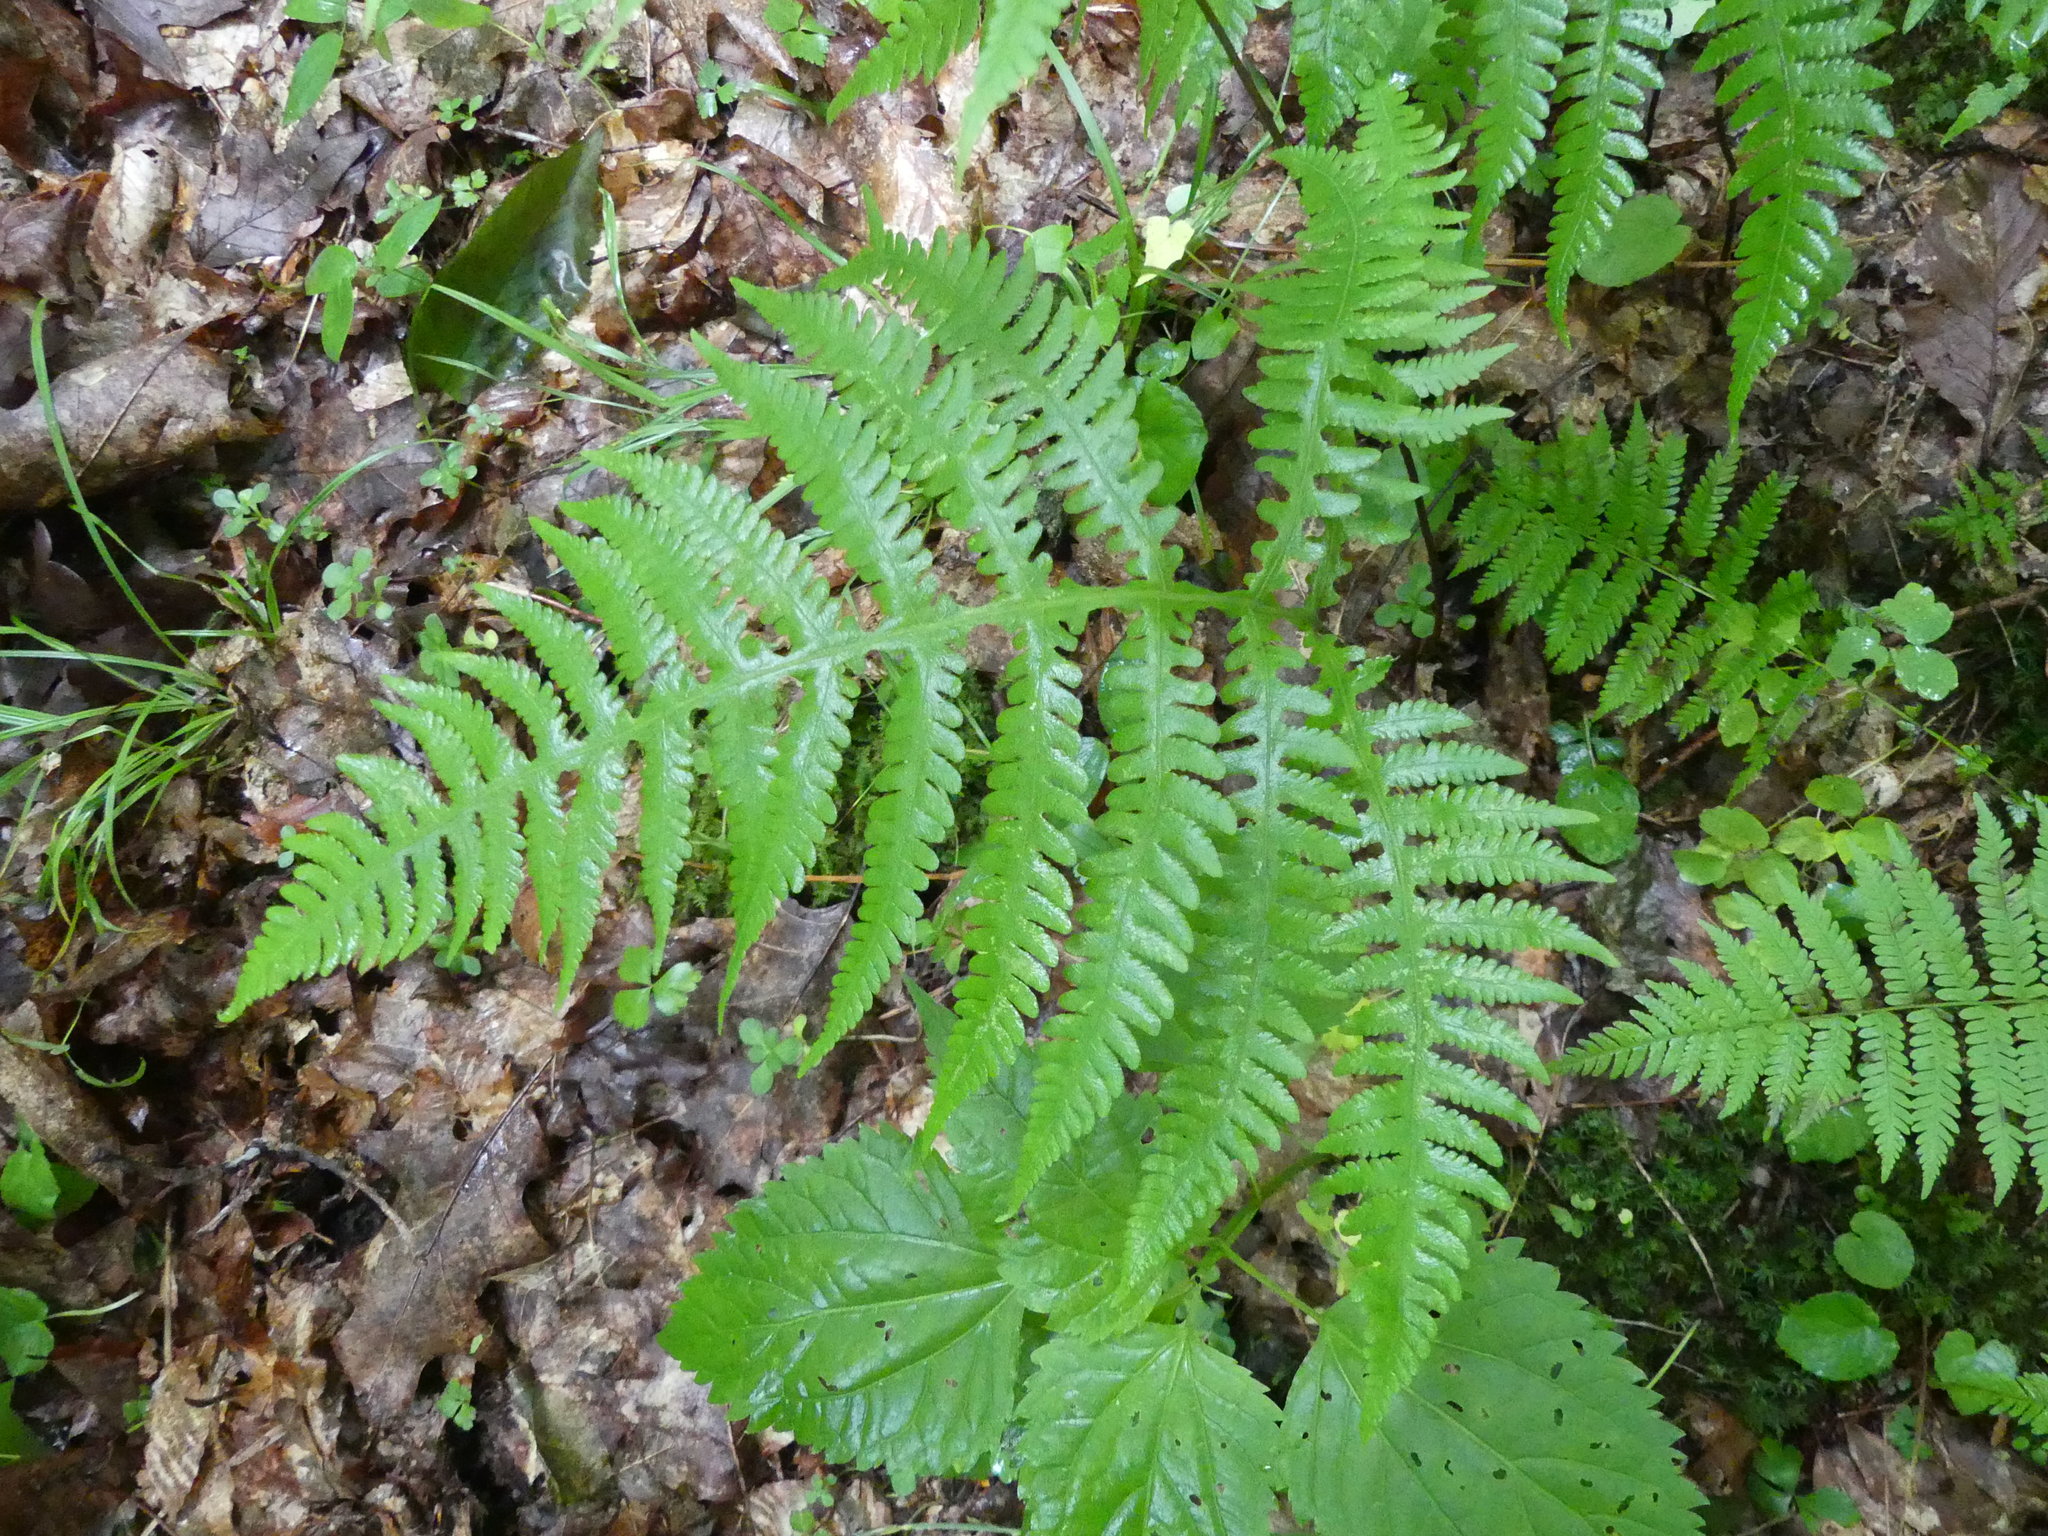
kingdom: Plantae
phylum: Tracheophyta
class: Polypodiopsida
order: Polypodiales
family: Thelypteridaceae
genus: Phegopteris
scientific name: Phegopteris hexagonoptera
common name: Broad beech fern
